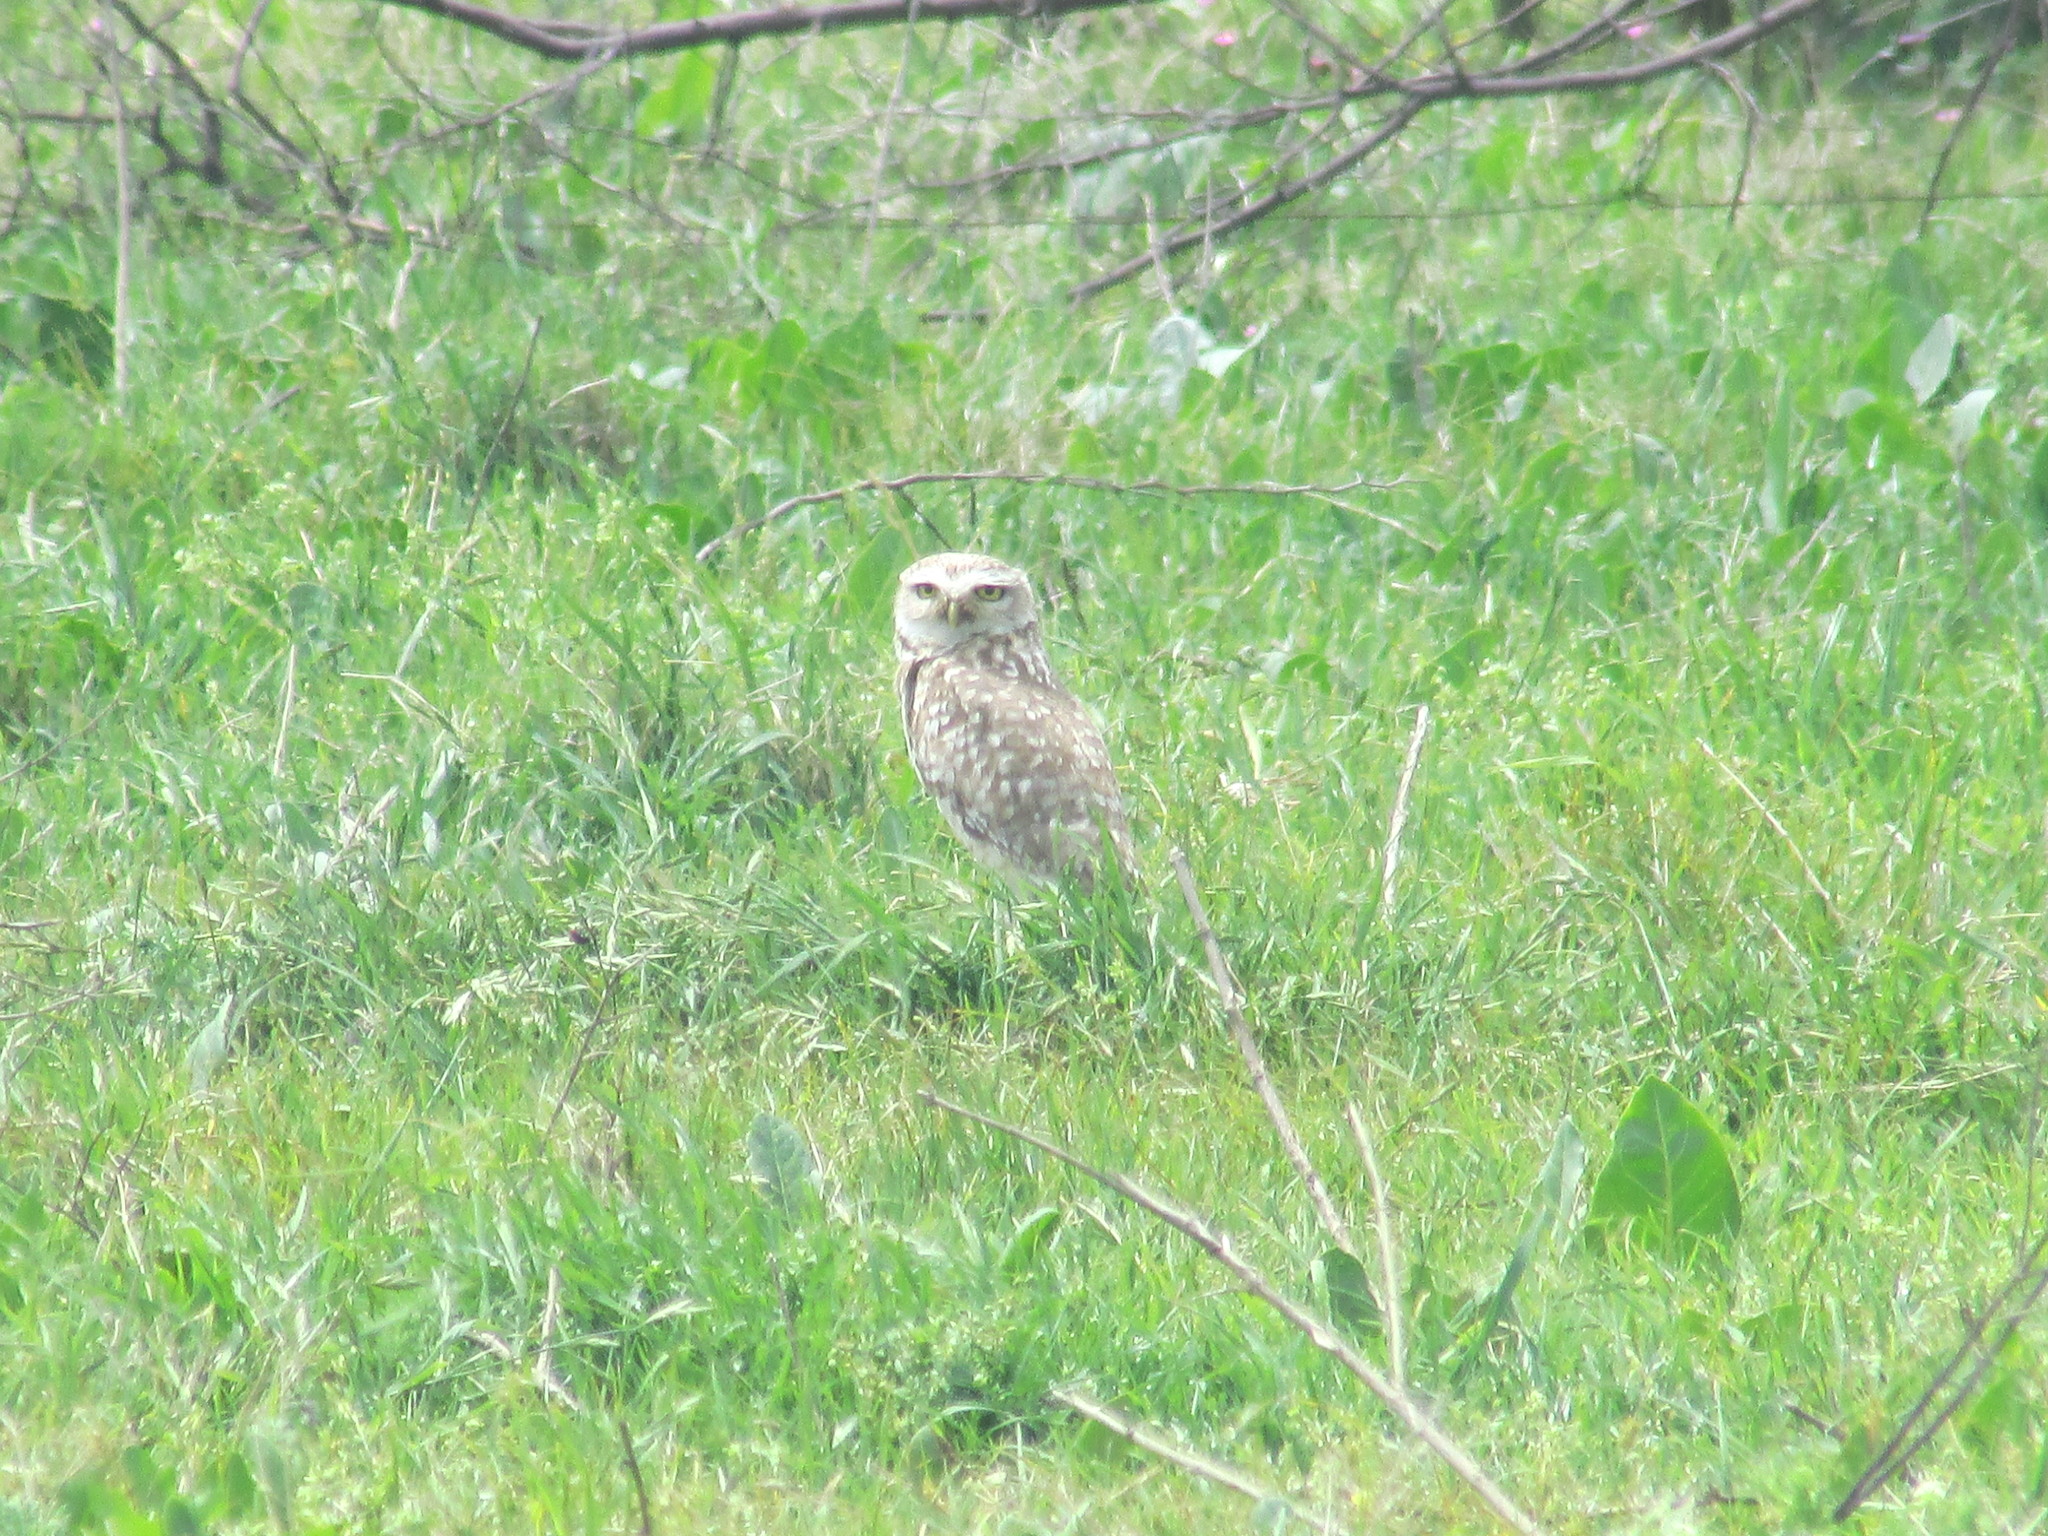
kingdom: Animalia
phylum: Chordata
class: Aves
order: Strigiformes
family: Strigidae
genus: Athene
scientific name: Athene cunicularia
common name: Burrowing owl
